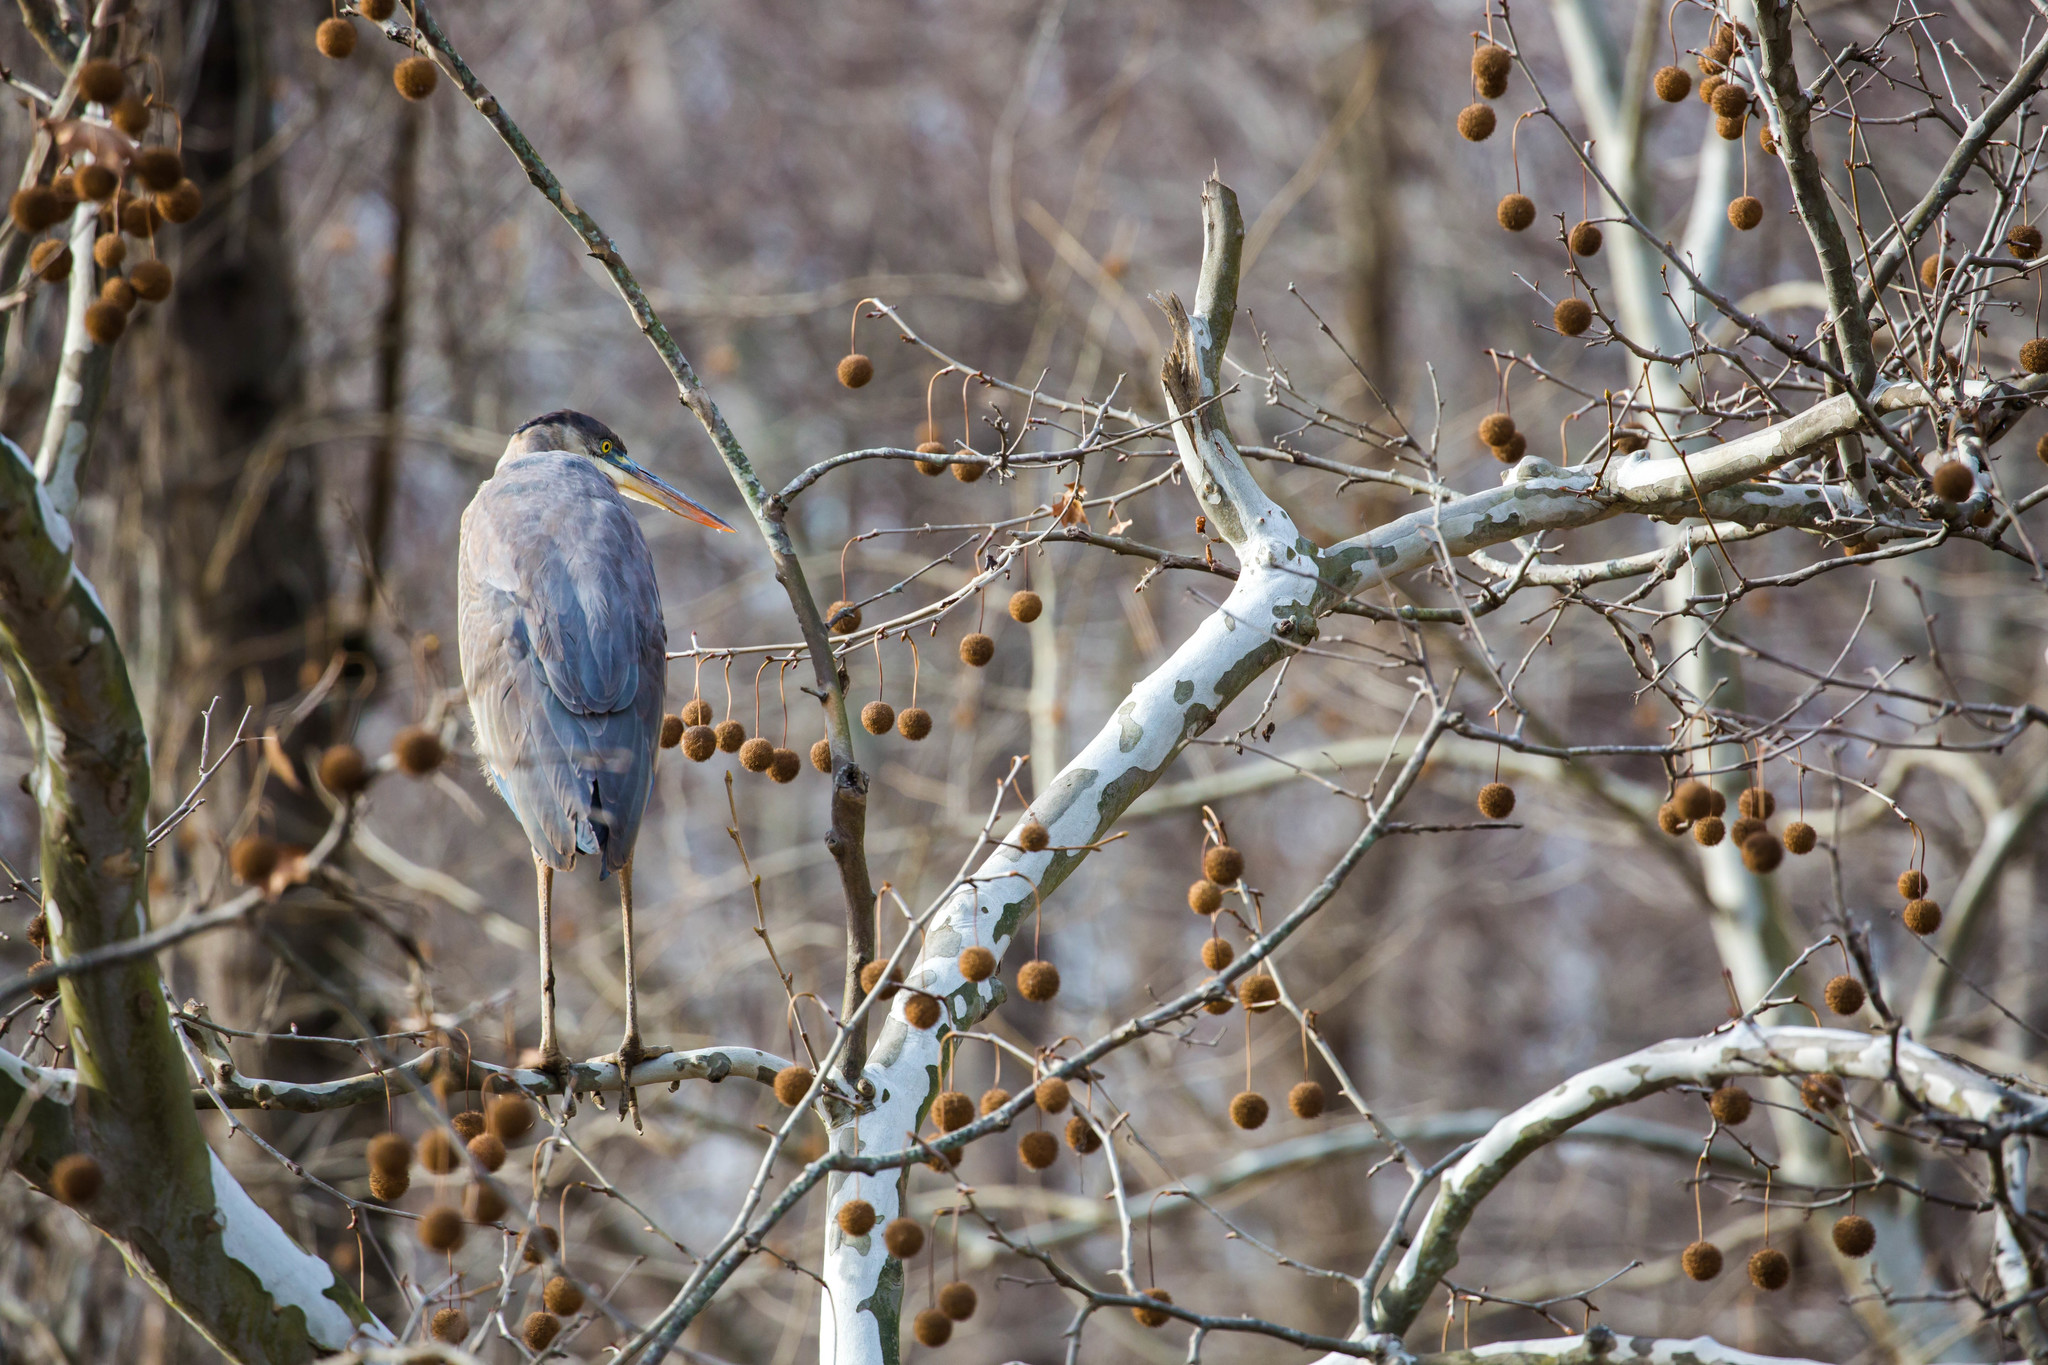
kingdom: Animalia
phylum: Chordata
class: Aves
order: Pelecaniformes
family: Ardeidae
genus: Ardea
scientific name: Ardea herodias
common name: Great blue heron
